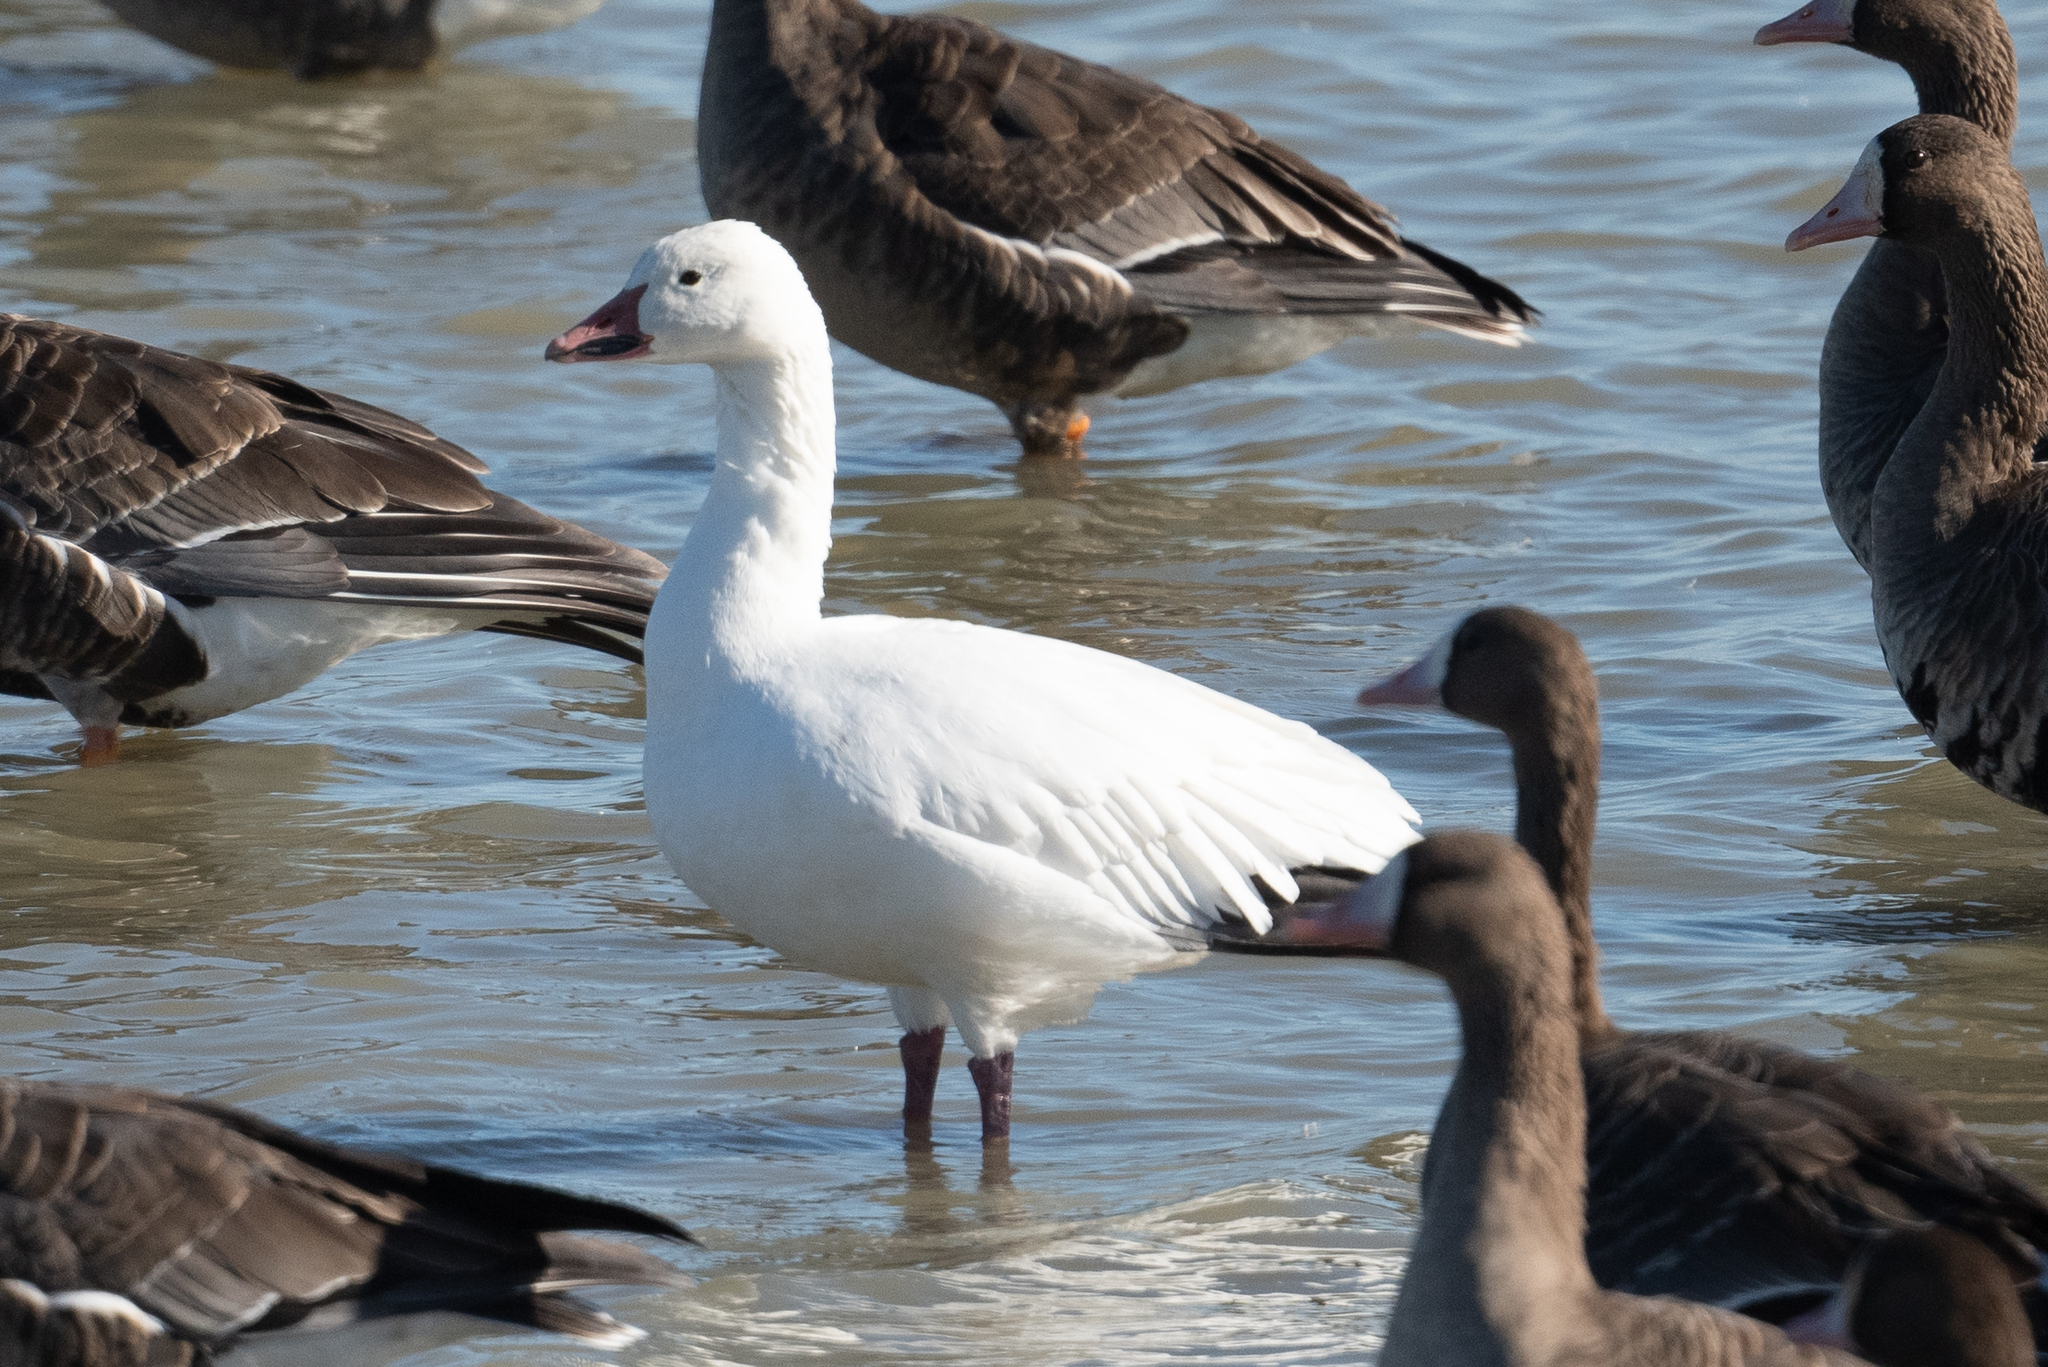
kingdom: Animalia
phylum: Chordata
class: Aves
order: Anseriformes
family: Anatidae
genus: Anser
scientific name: Anser caerulescens
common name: Snow goose
